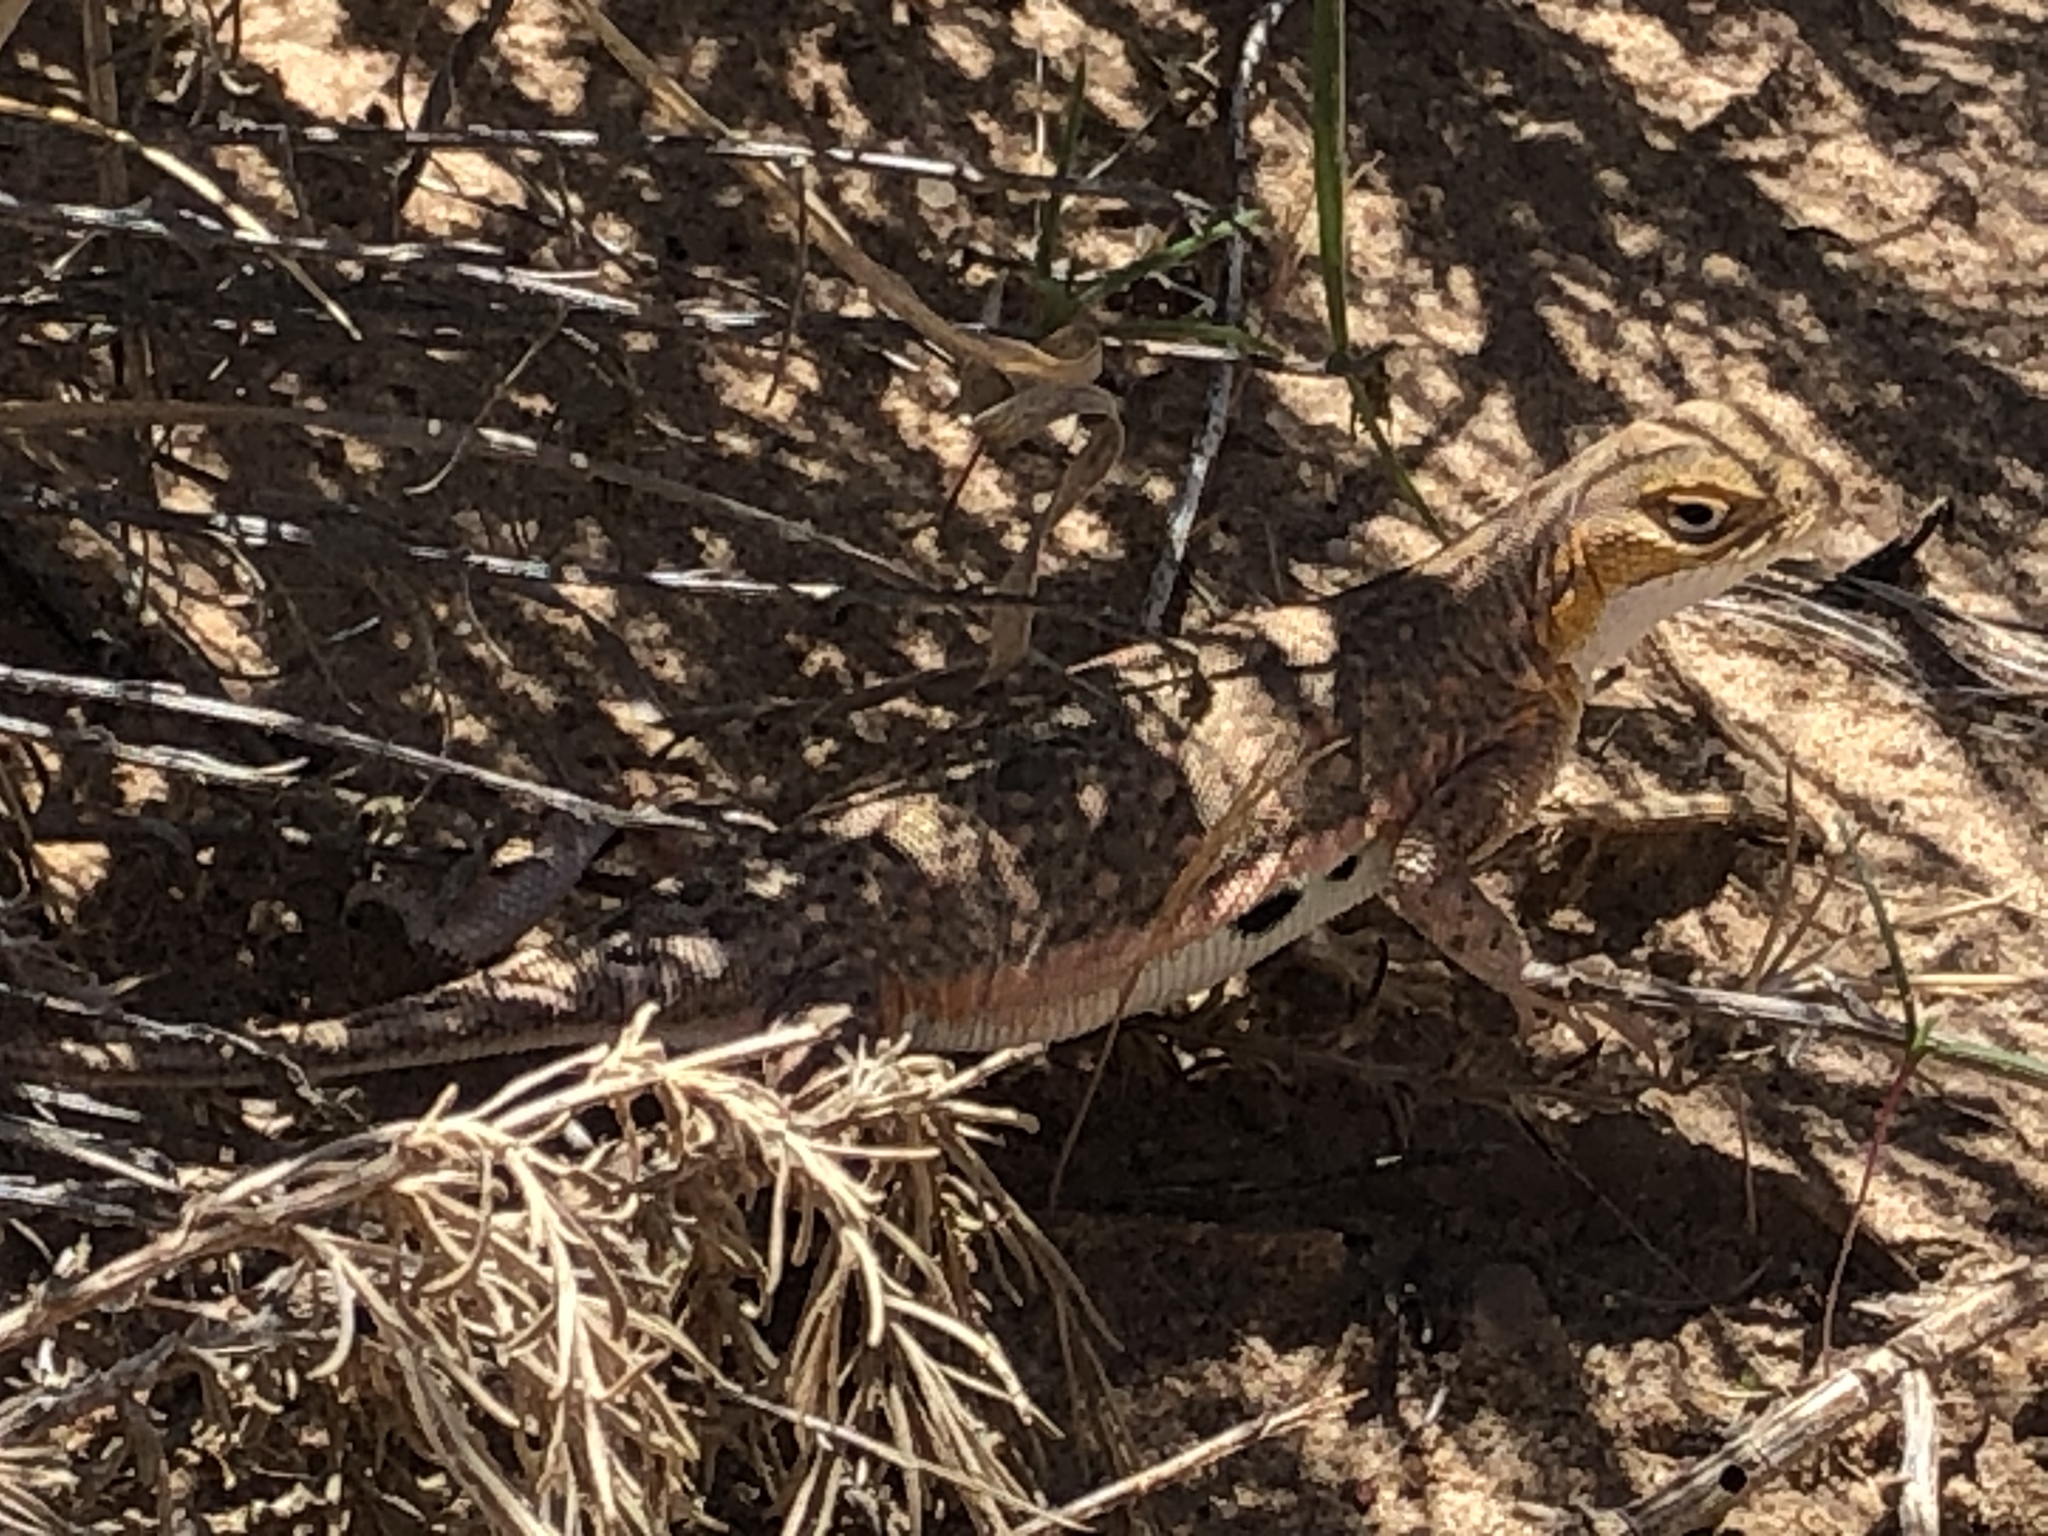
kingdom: Animalia
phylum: Chordata
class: Squamata
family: Phrynosomatidae
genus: Holbrookia
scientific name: Holbrookia maculata
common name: Lesser earless lizard
